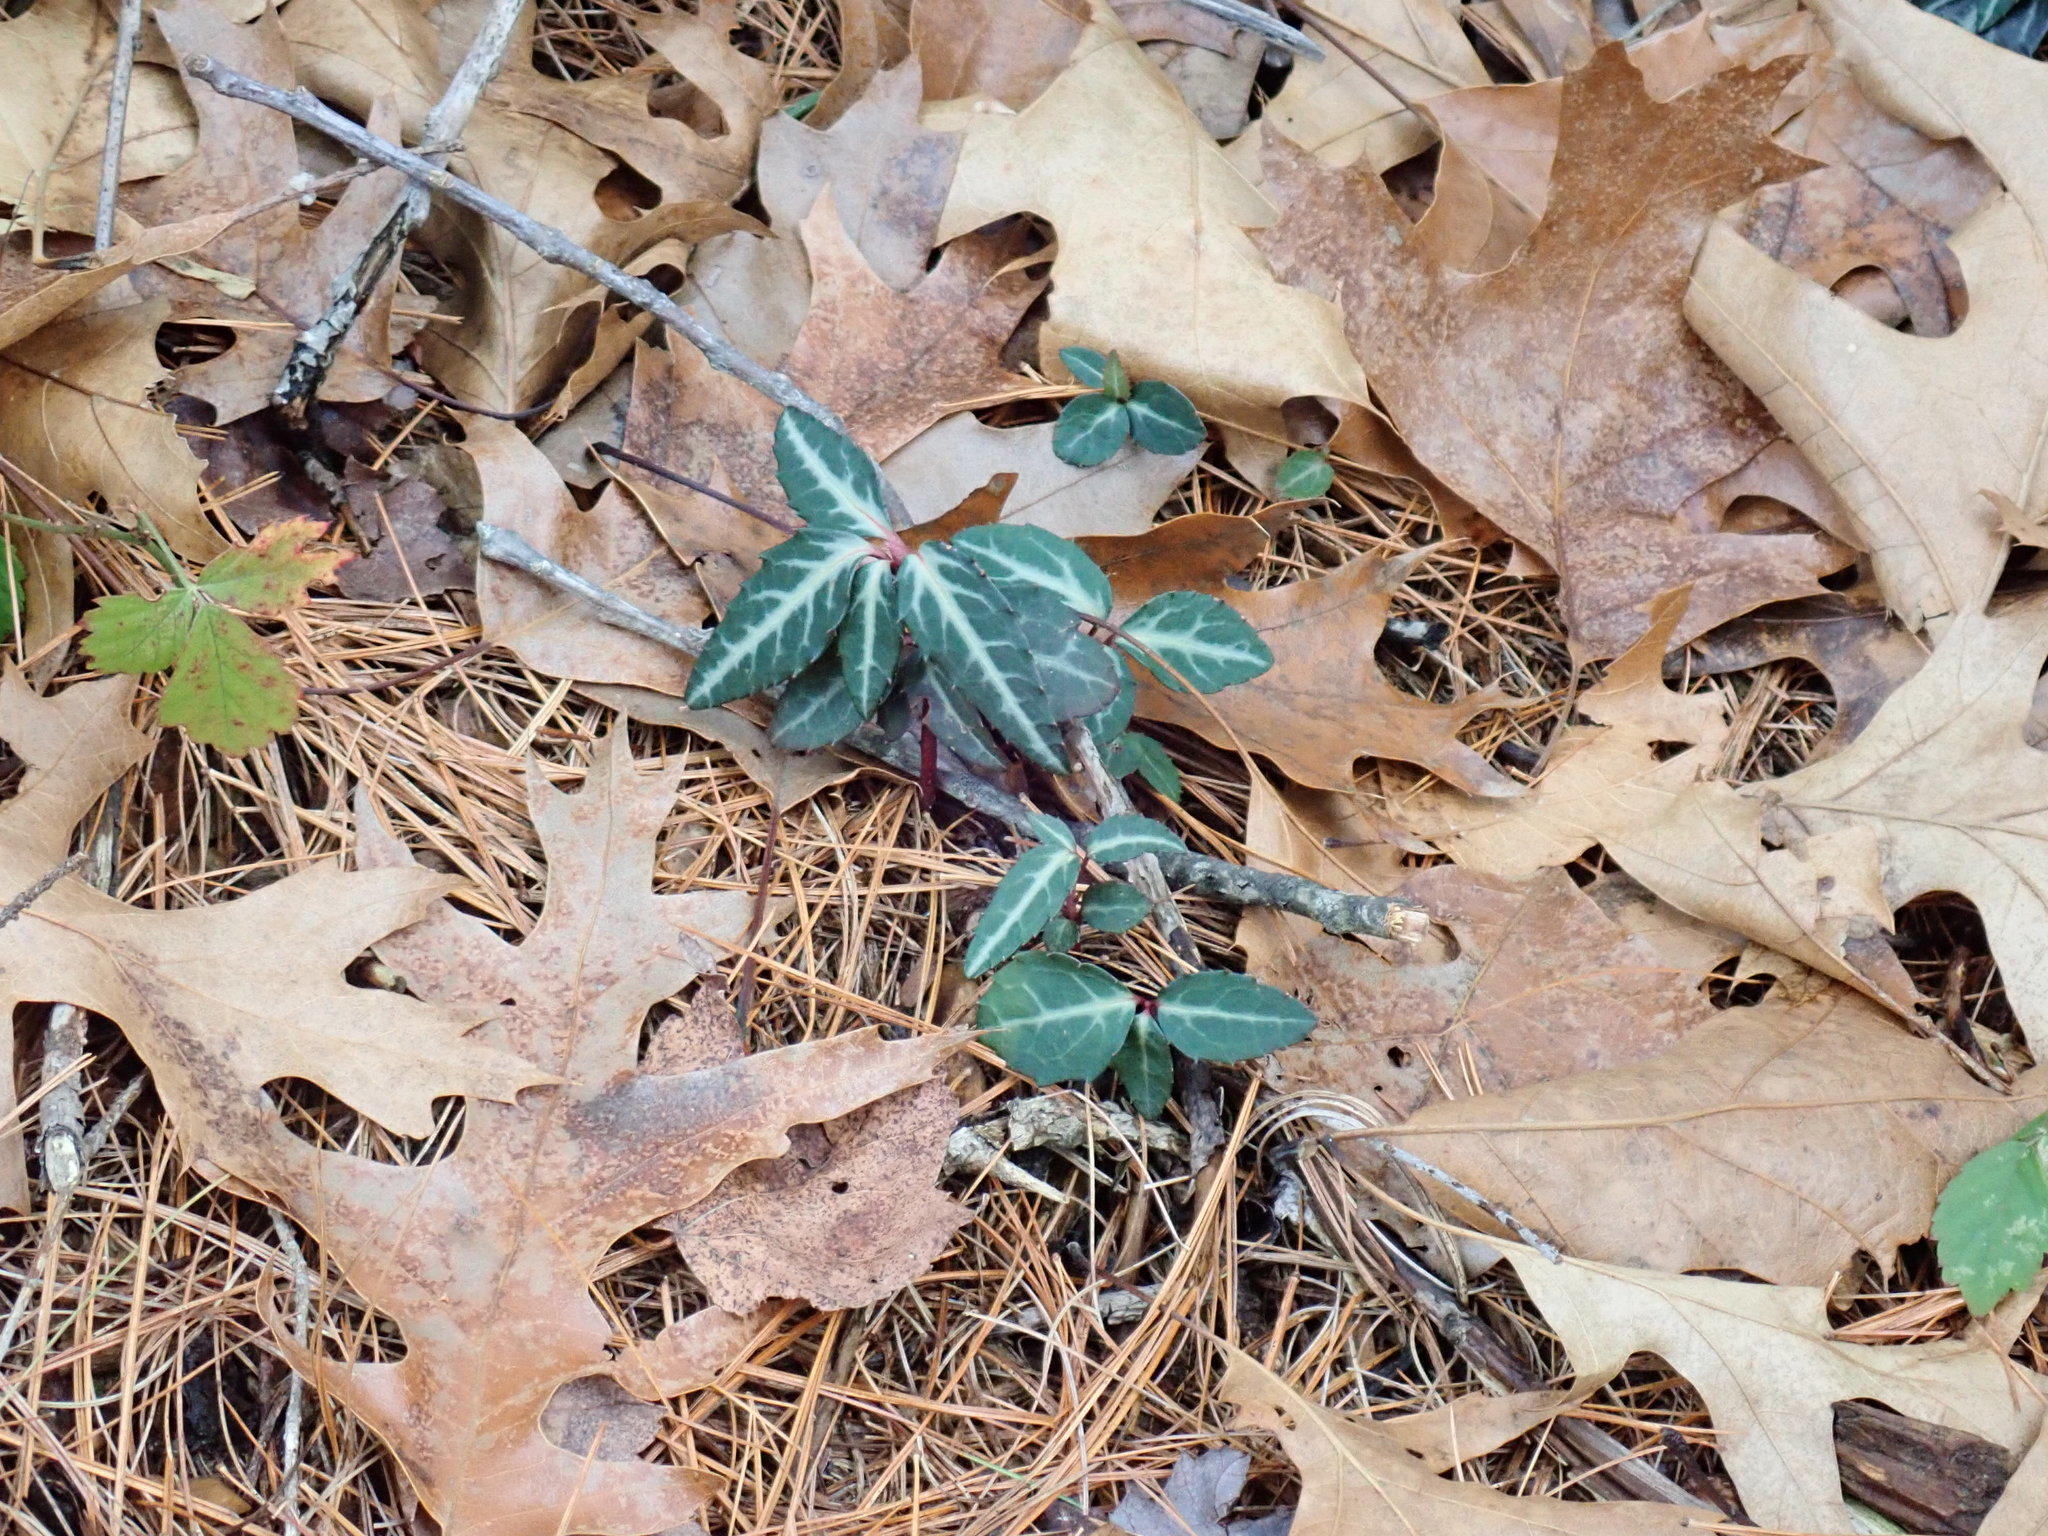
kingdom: Plantae
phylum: Tracheophyta
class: Magnoliopsida
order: Ericales
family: Ericaceae
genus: Chimaphila
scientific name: Chimaphila maculata
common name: Spotted pipsissewa
